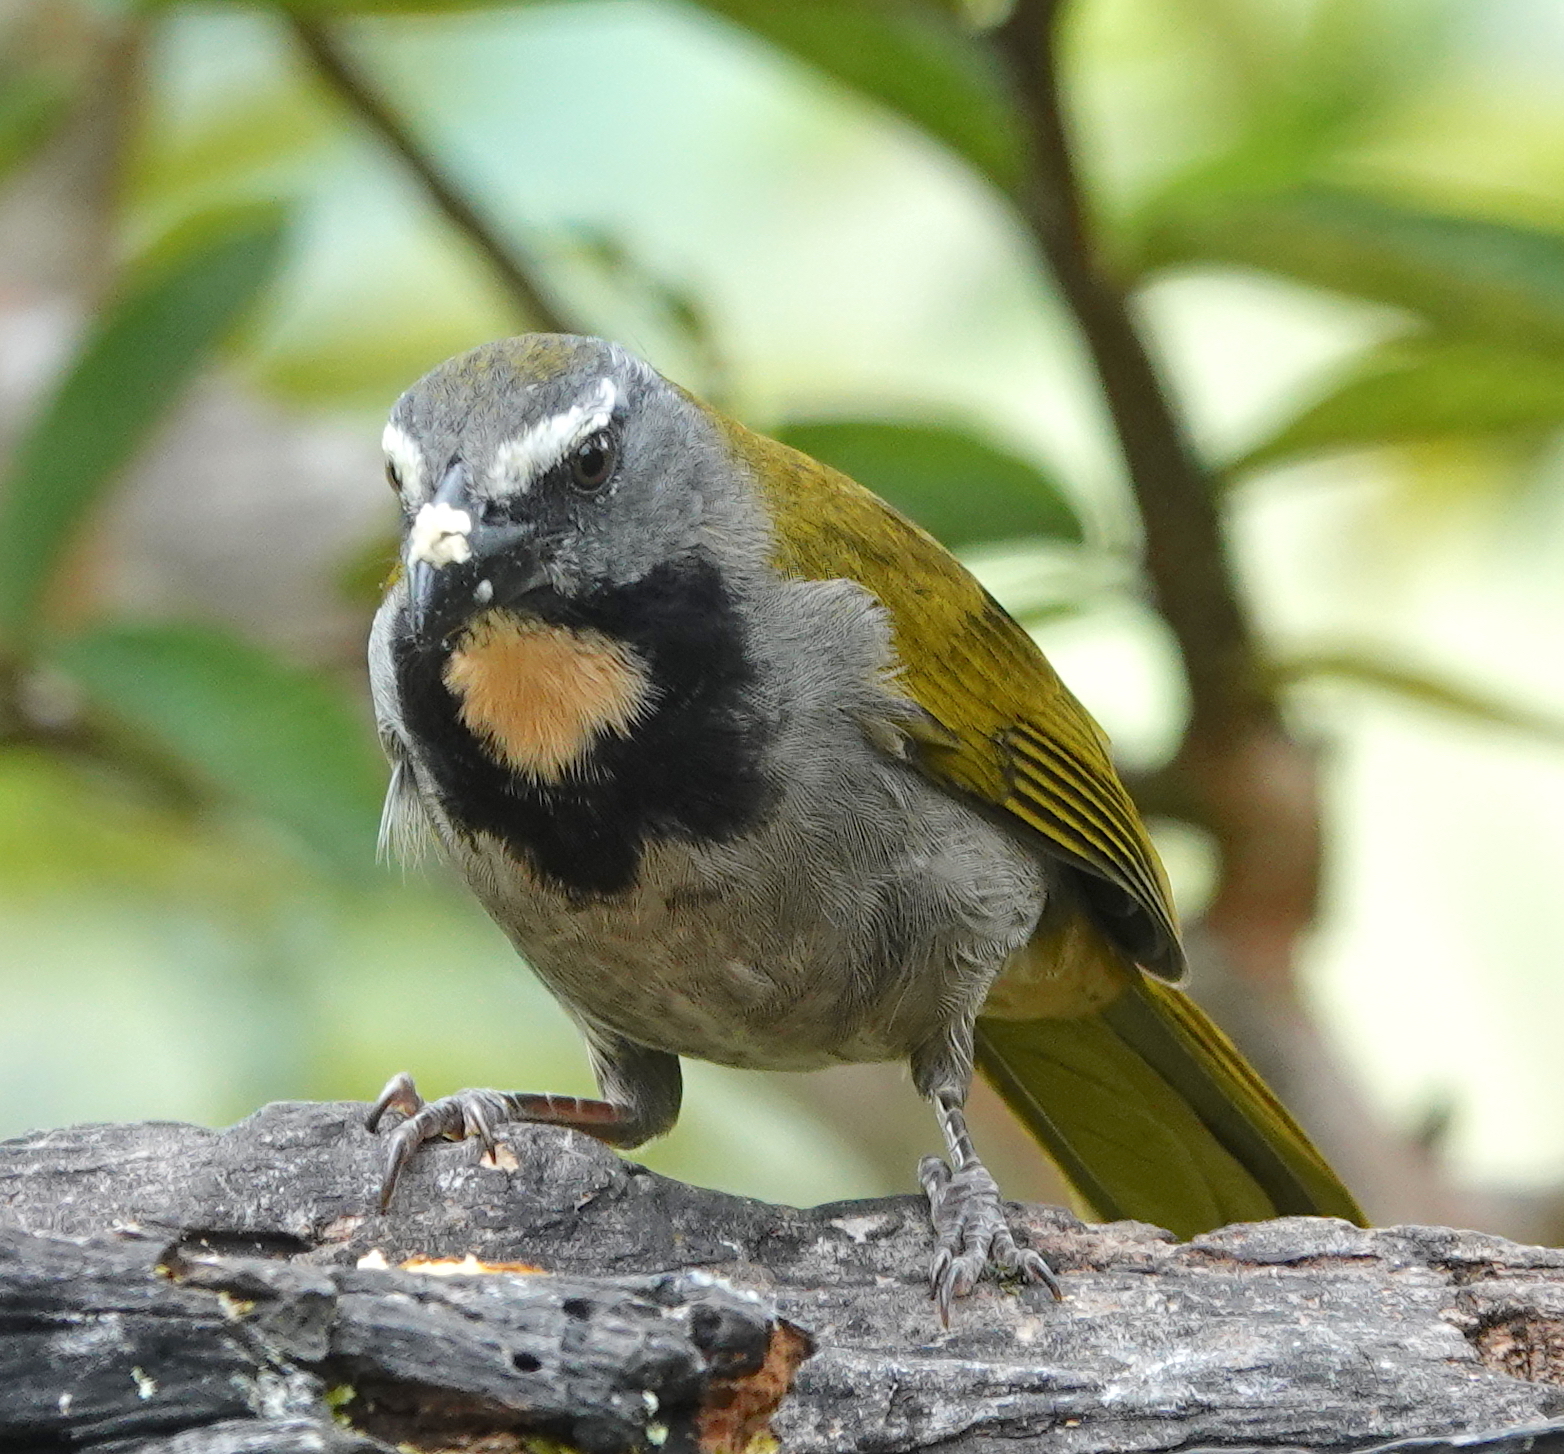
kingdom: Animalia
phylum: Chordata
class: Aves
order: Passeriformes
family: Thraupidae
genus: Saltator
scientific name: Saltator maximus
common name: Buff-throated saltator
